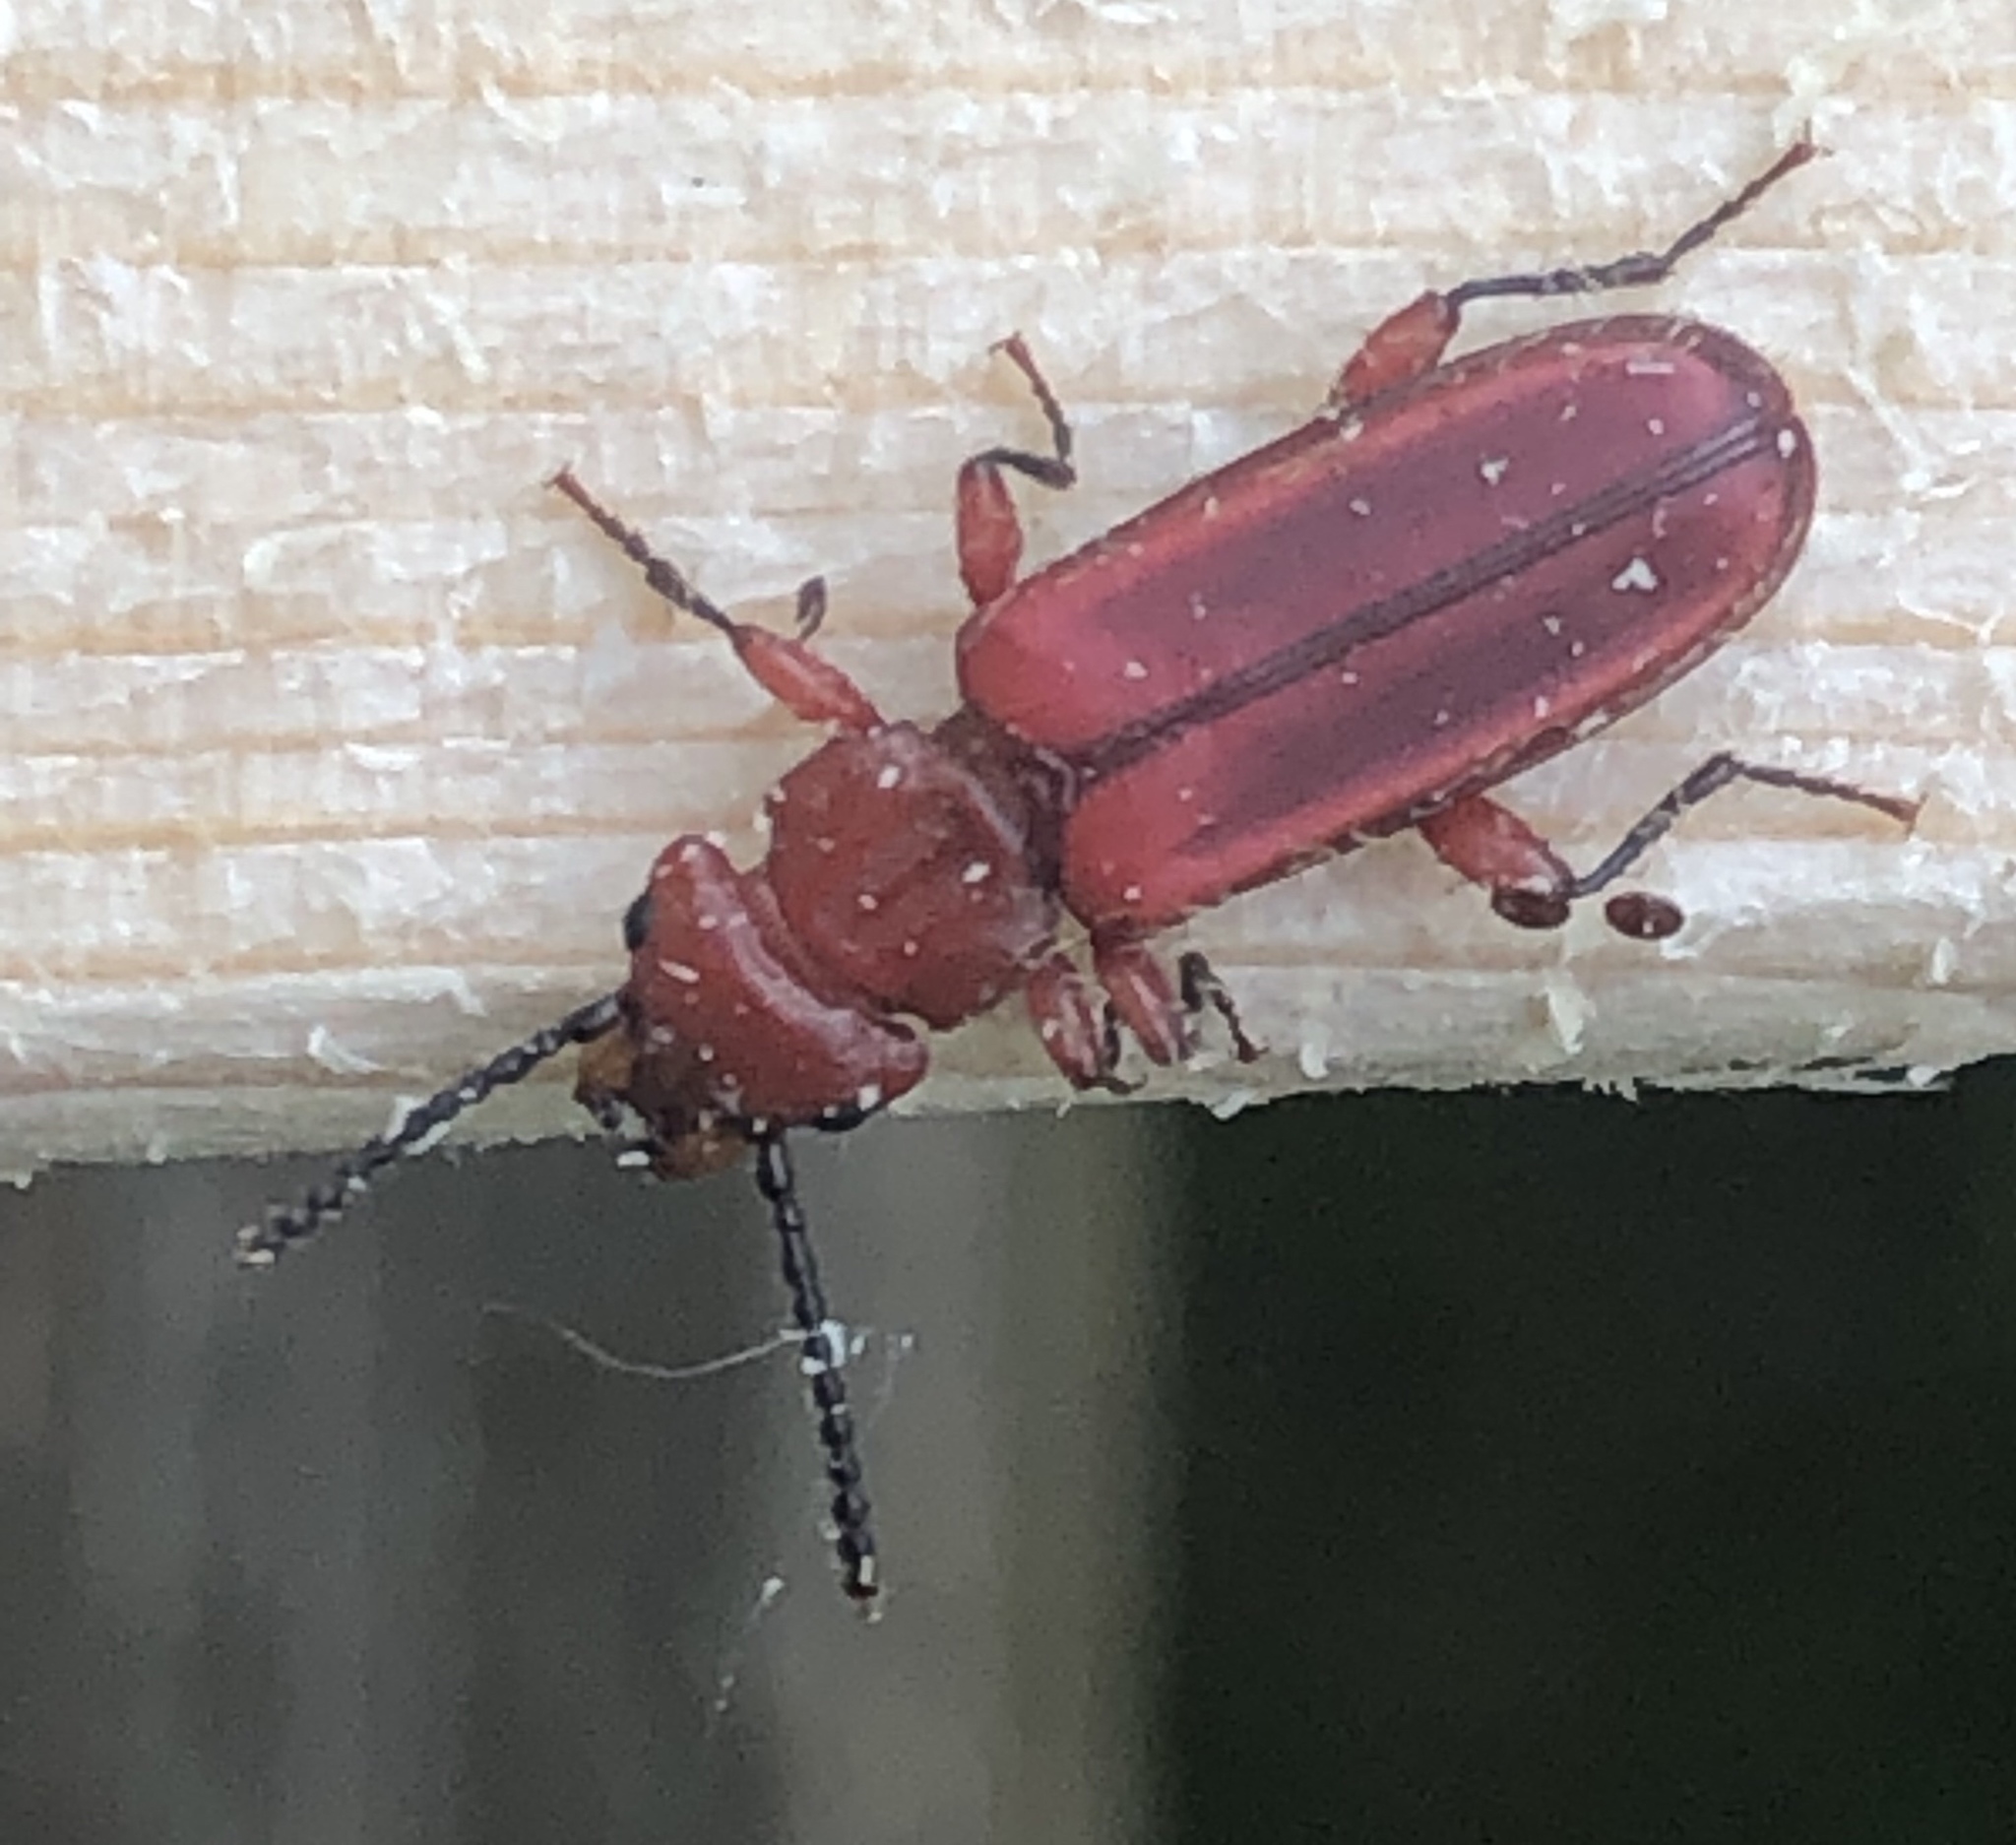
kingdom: Animalia
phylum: Arthropoda
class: Insecta
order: Coleoptera
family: Cucujidae
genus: Cucujus
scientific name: Cucujus clavipes
